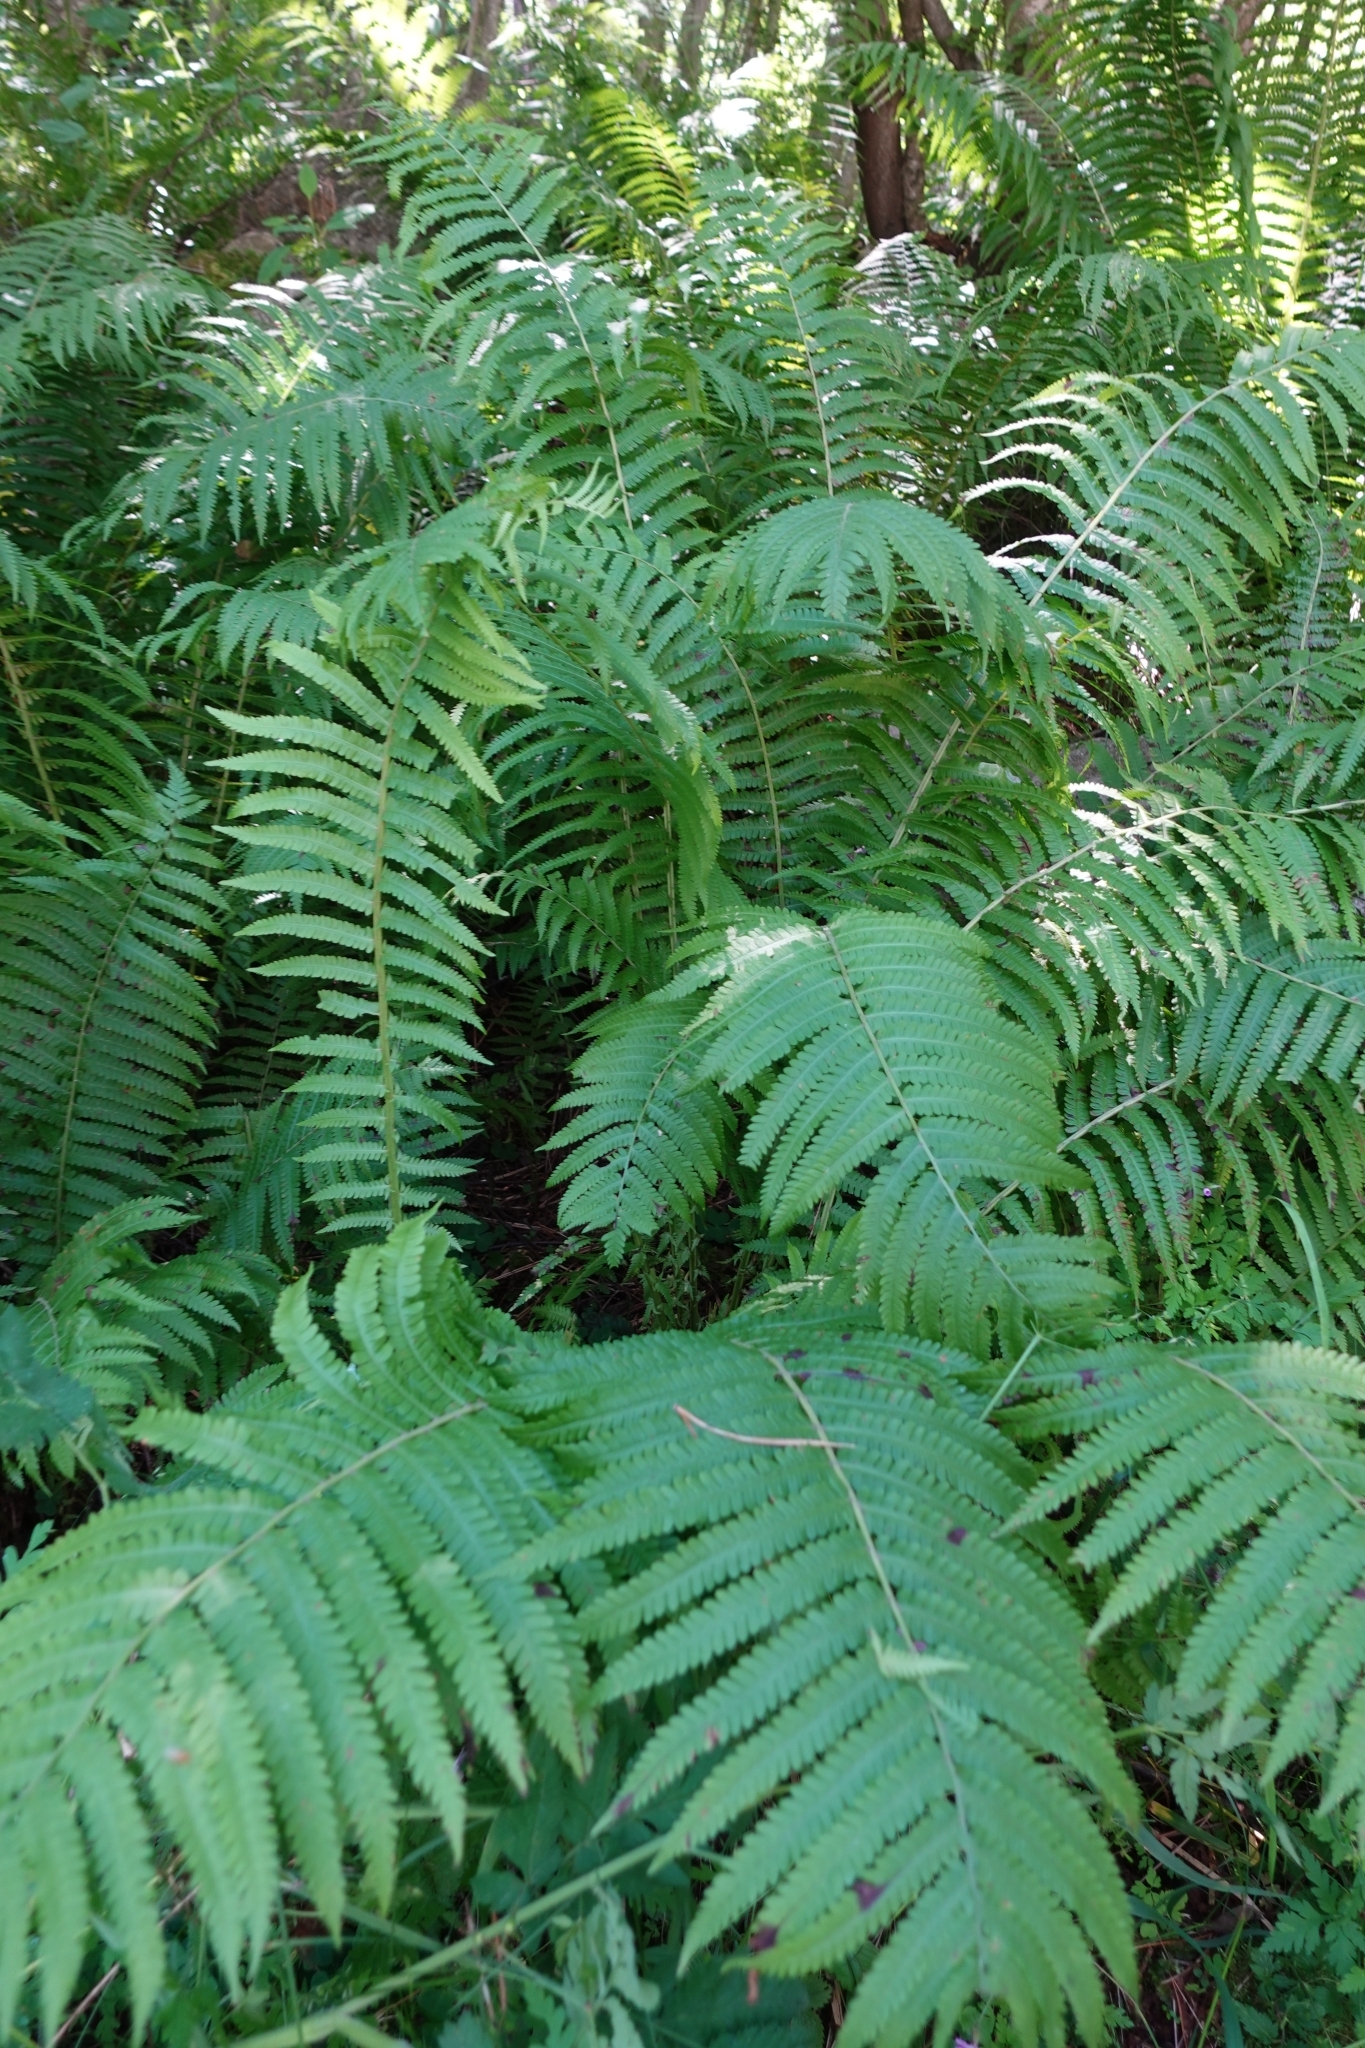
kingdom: Plantae
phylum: Tracheophyta
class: Polypodiopsida
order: Polypodiales
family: Onocleaceae
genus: Matteuccia
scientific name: Matteuccia struthiopteris
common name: Ostrich fern
